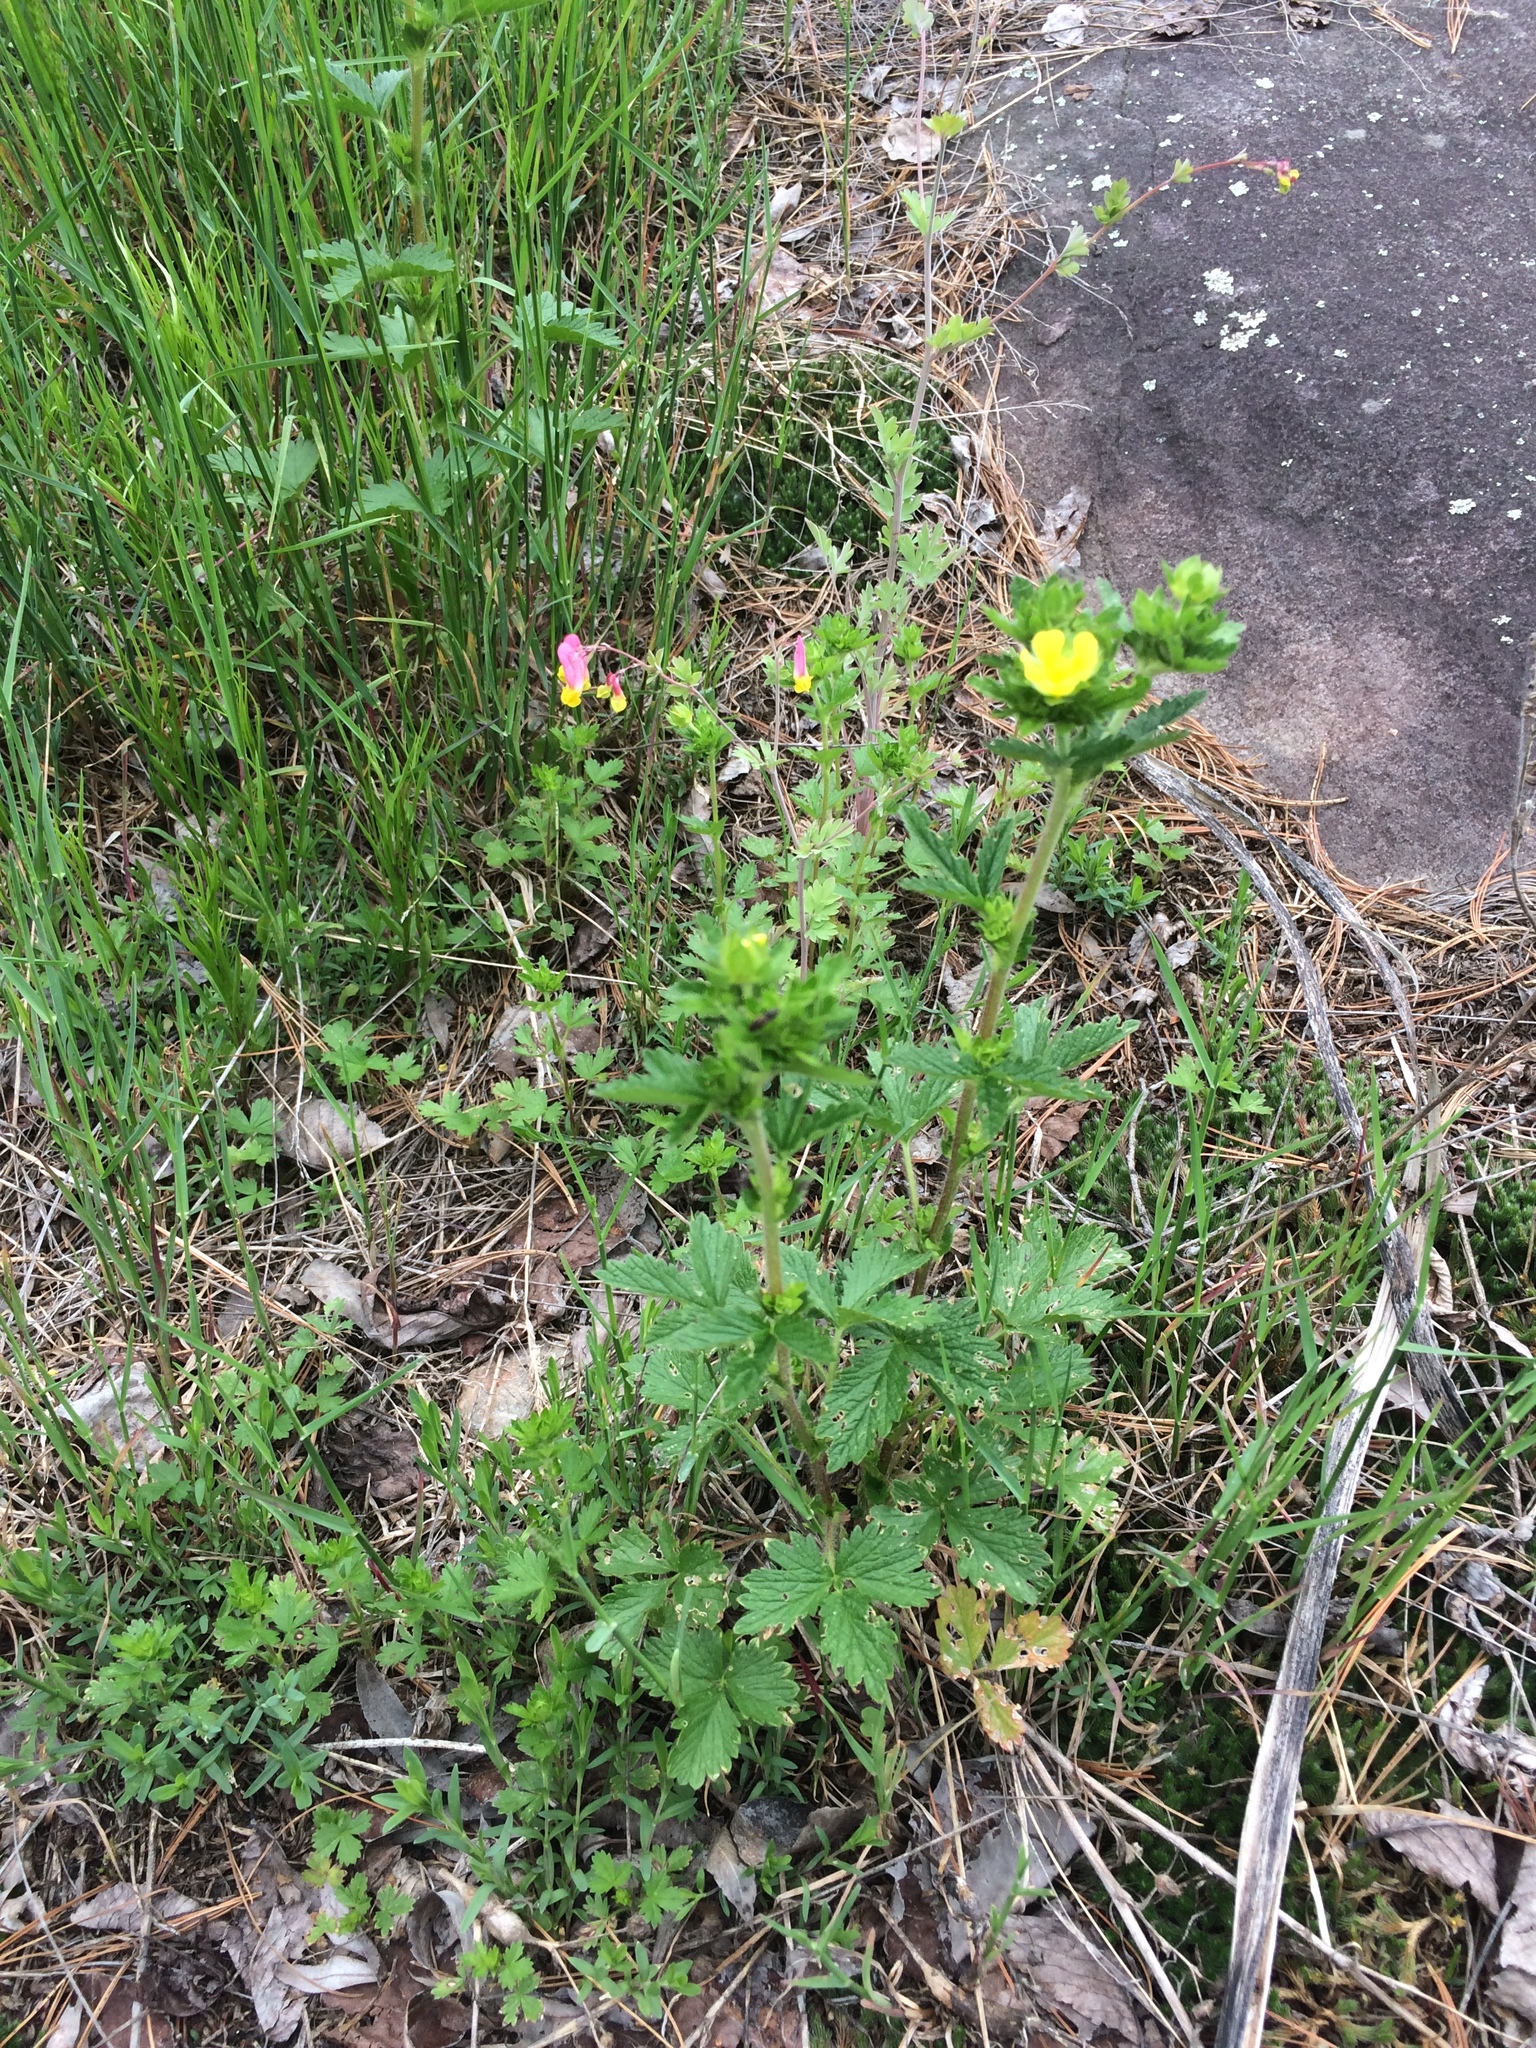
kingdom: Plantae
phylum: Tracheophyta
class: Magnoliopsida
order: Rosales
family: Rosaceae
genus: Potentilla
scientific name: Potentilla norvegica
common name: Ternate-leaved cinquefoil
